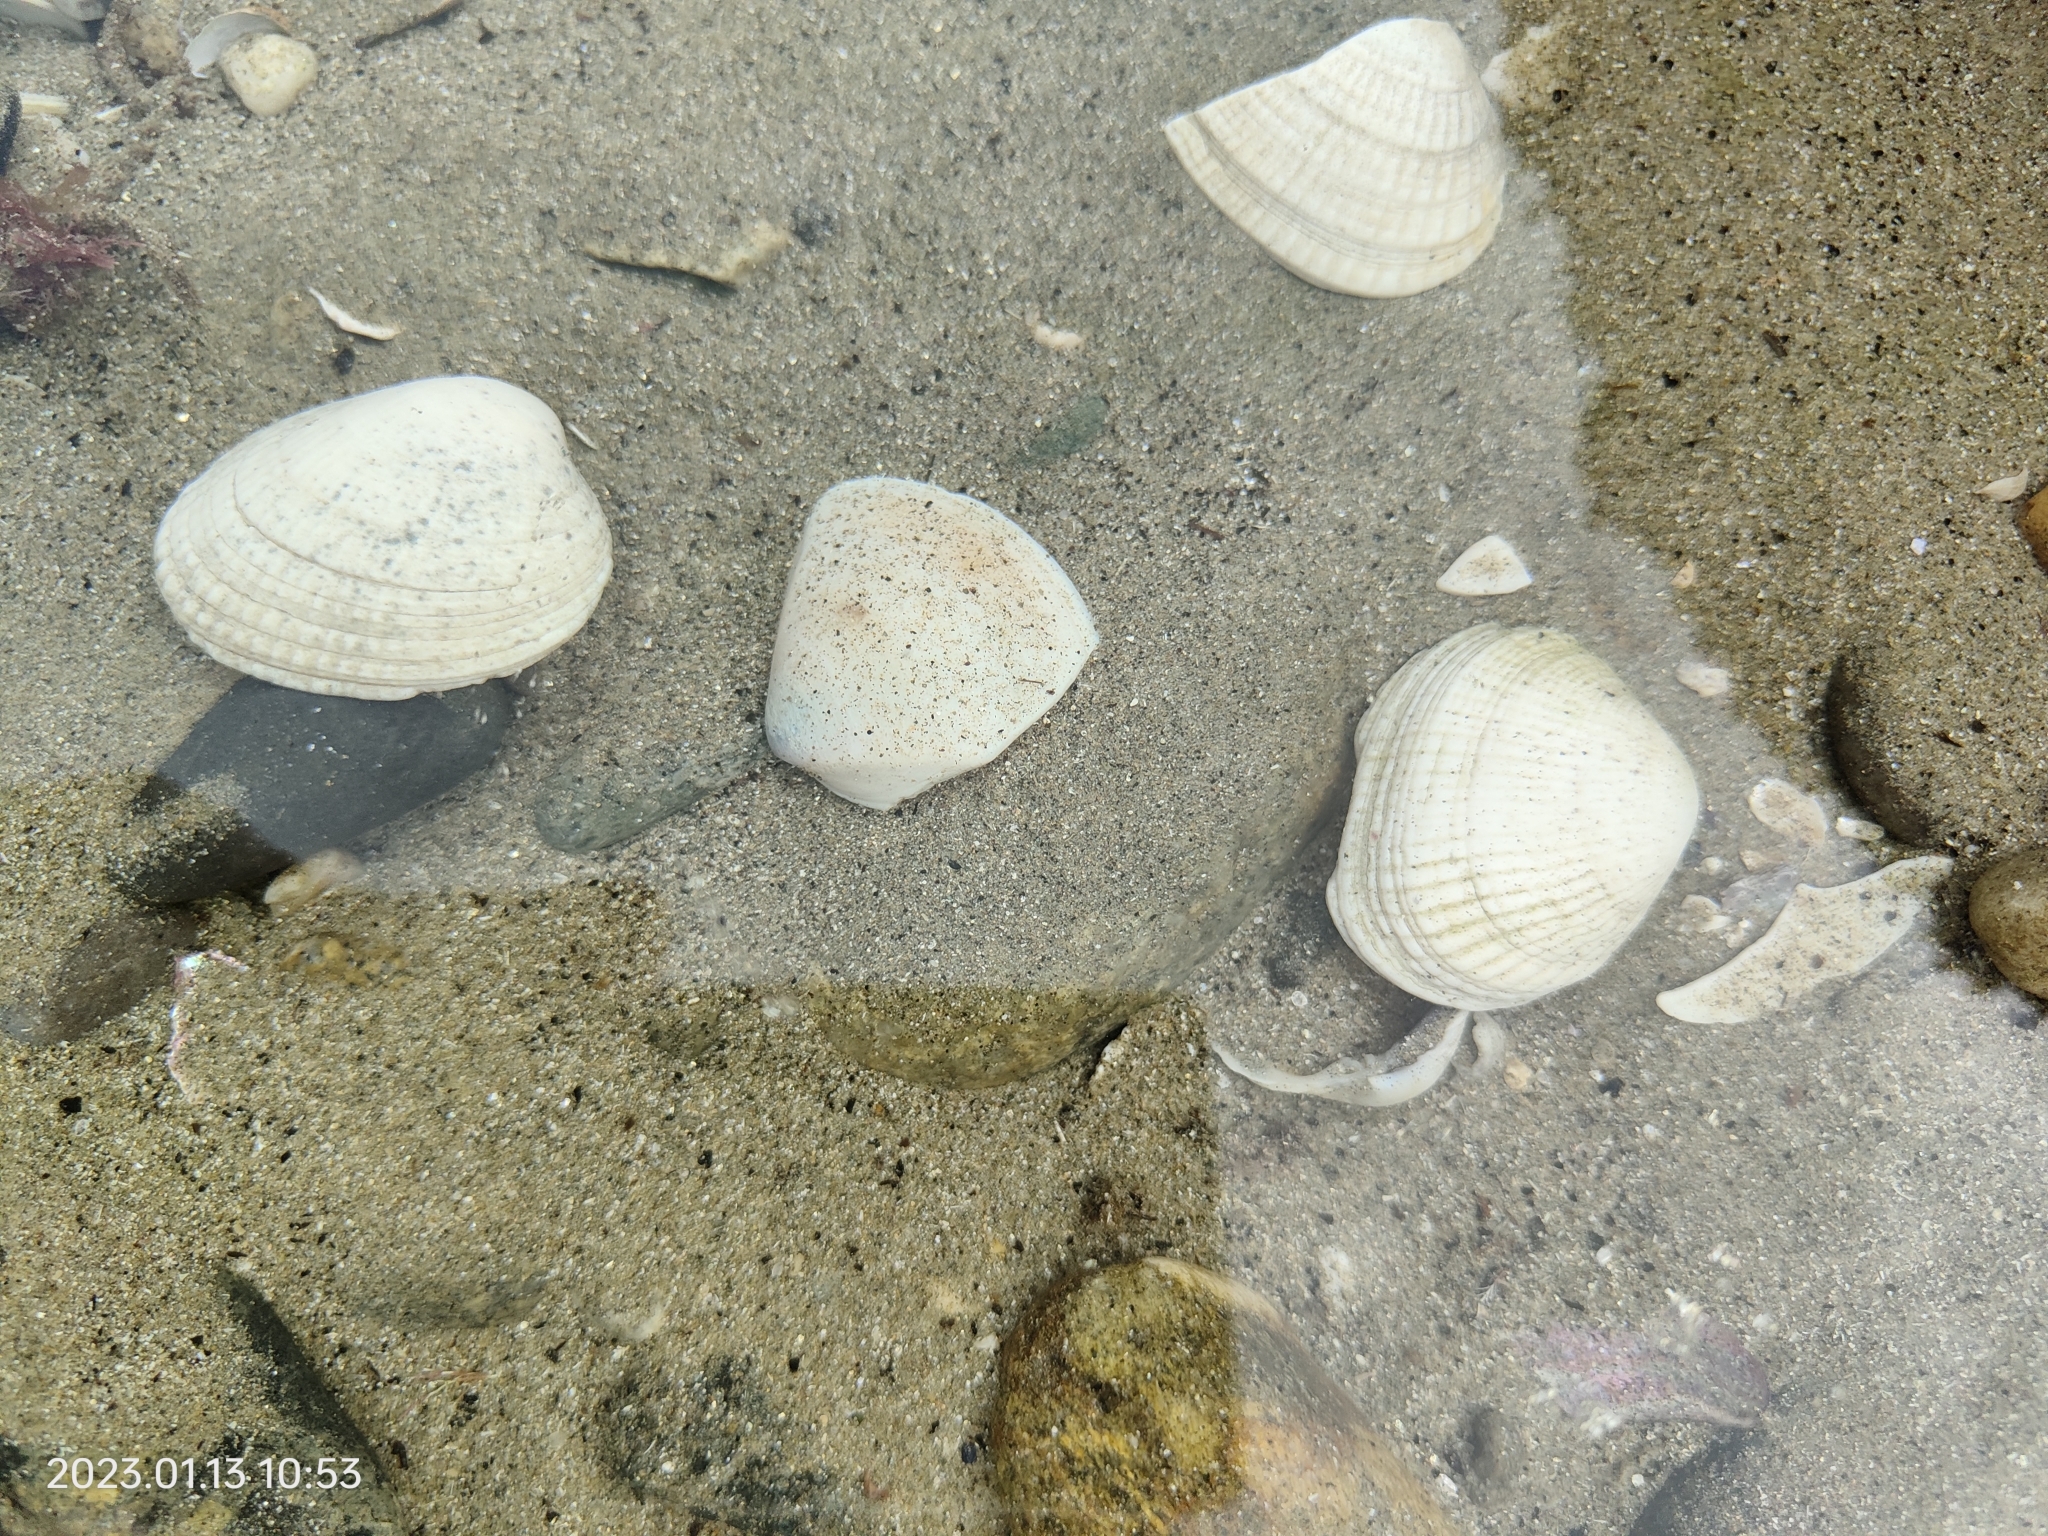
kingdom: Animalia
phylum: Mollusca
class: Bivalvia
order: Venerida
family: Veneridae
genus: Austrovenus
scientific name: Austrovenus stutchburyi
